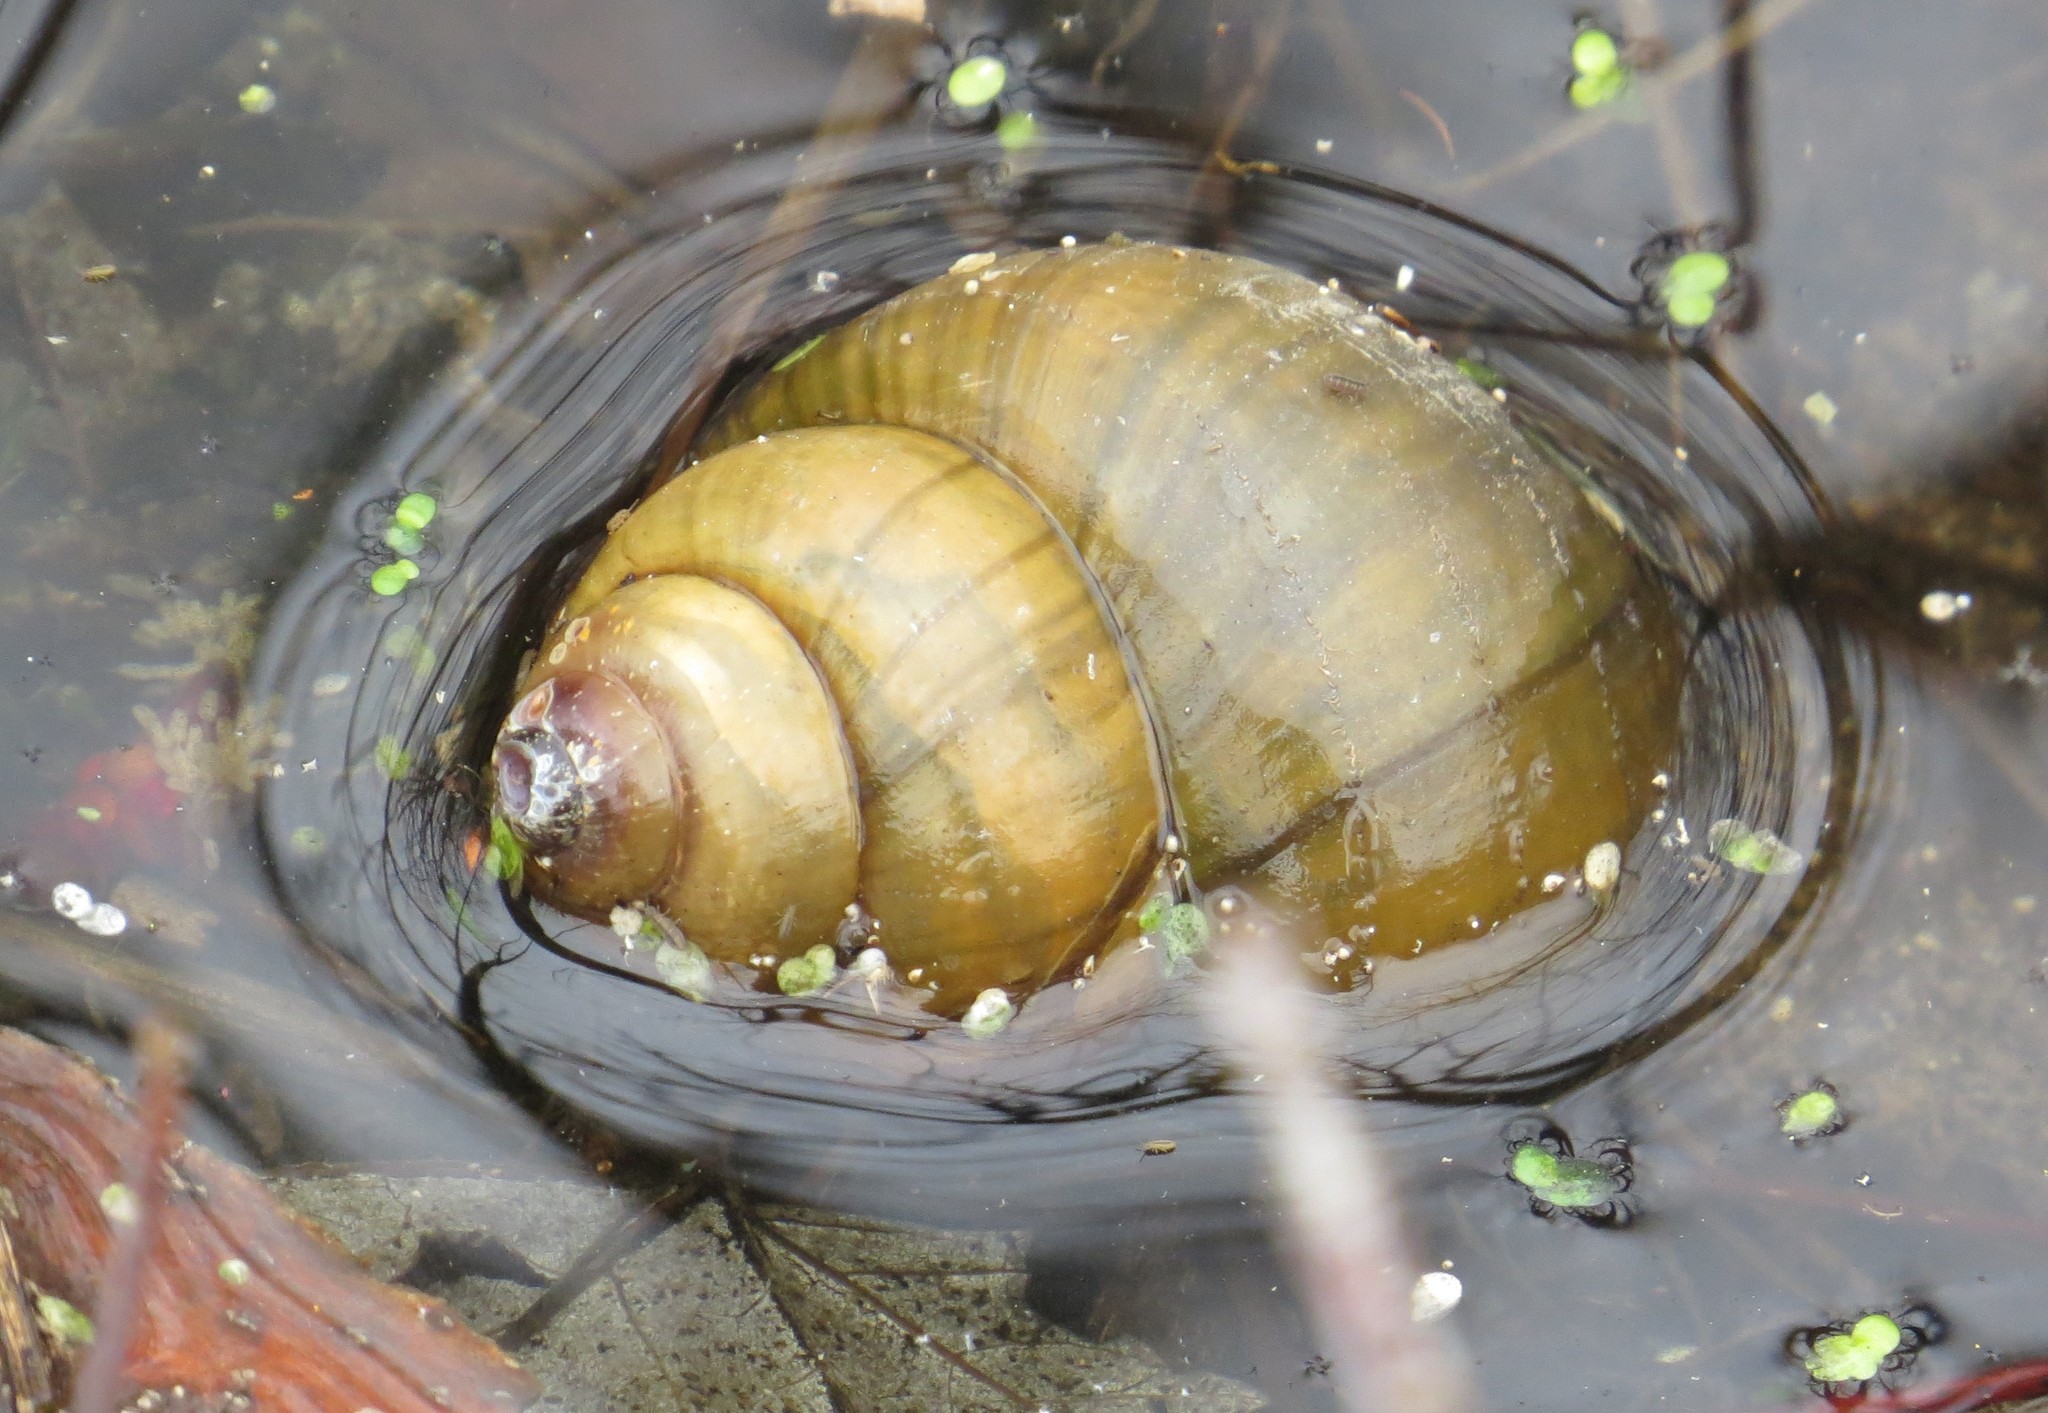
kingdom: Animalia
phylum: Mollusca
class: Gastropoda
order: Architaenioglossa
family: Viviparidae
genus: Cipangopaludina
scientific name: Cipangopaludina chinensis
